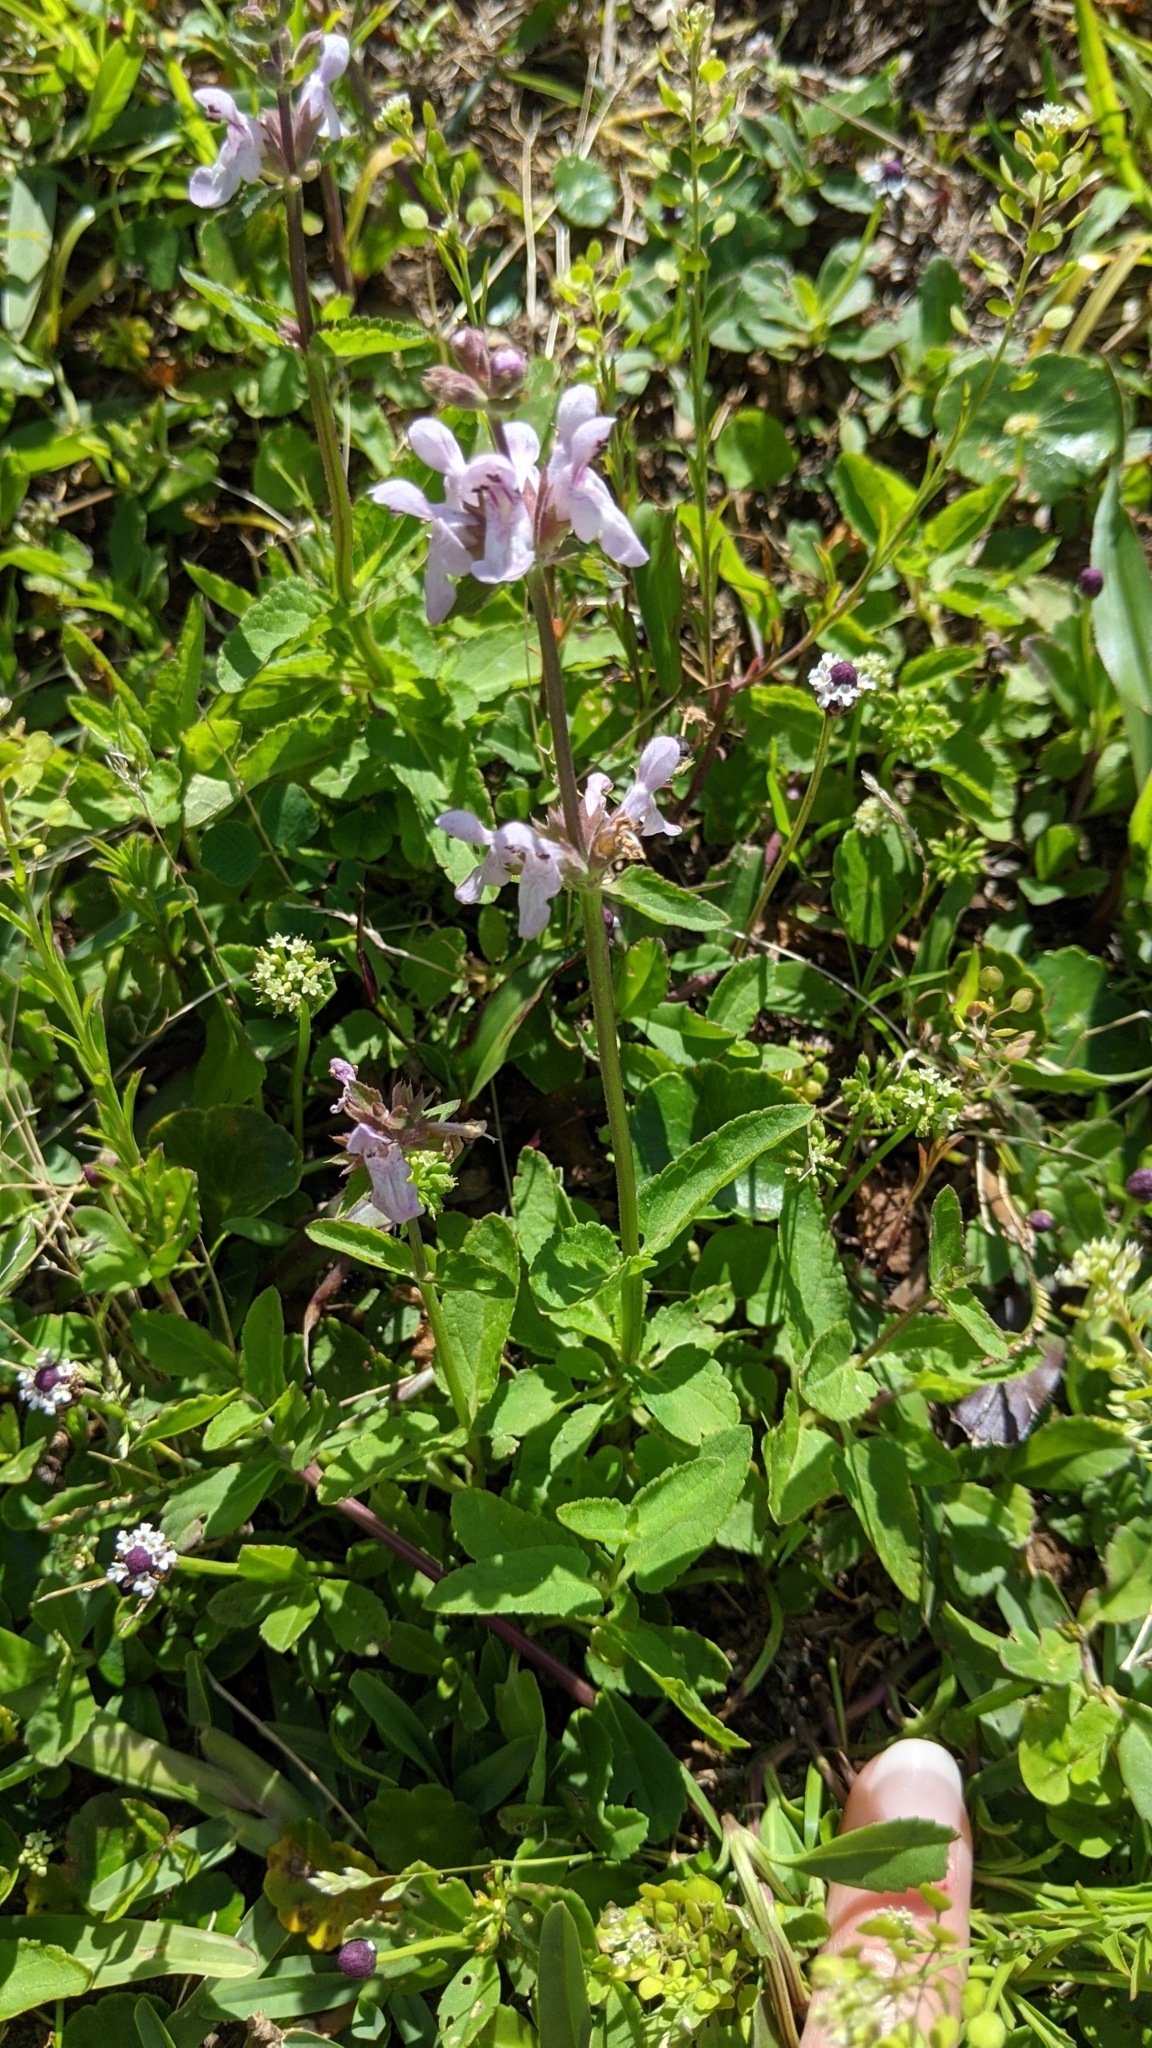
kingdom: Plantae
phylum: Tracheophyta
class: Magnoliopsida
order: Lamiales
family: Lamiaceae
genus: Stachys
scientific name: Stachys floridana
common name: Florida betony
